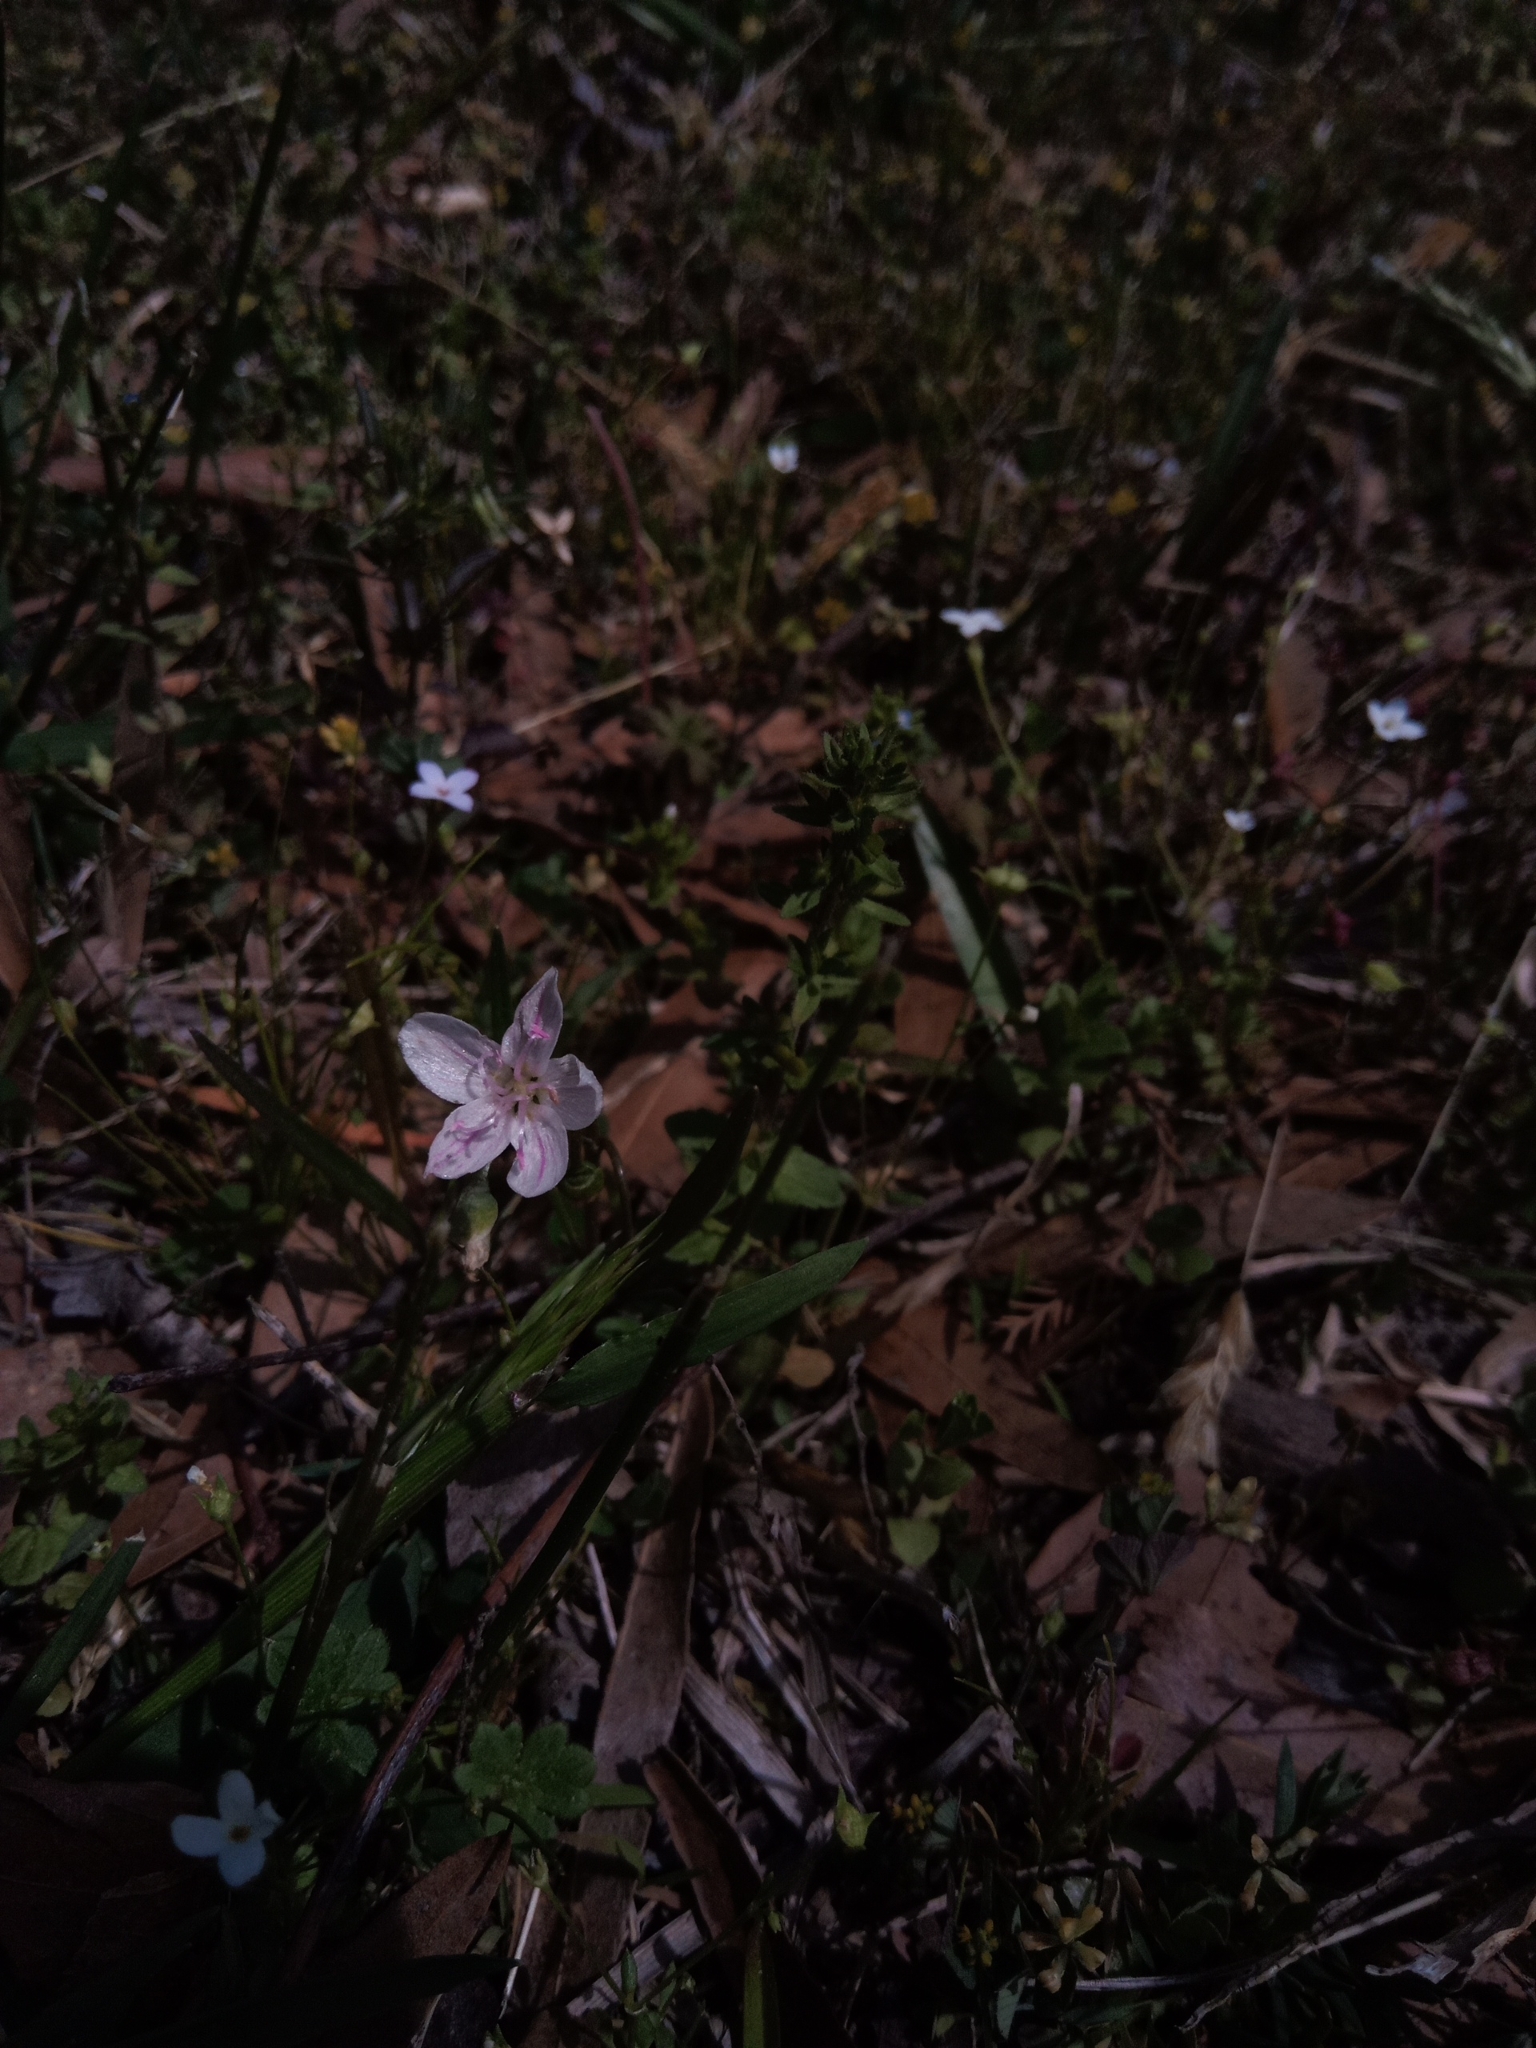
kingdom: Plantae
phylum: Tracheophyta
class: Magnoliopsida
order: Caryophyllales
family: Montiaceae
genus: Claytonia
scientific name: Claytonia virginica
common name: Virginia springbeauty
